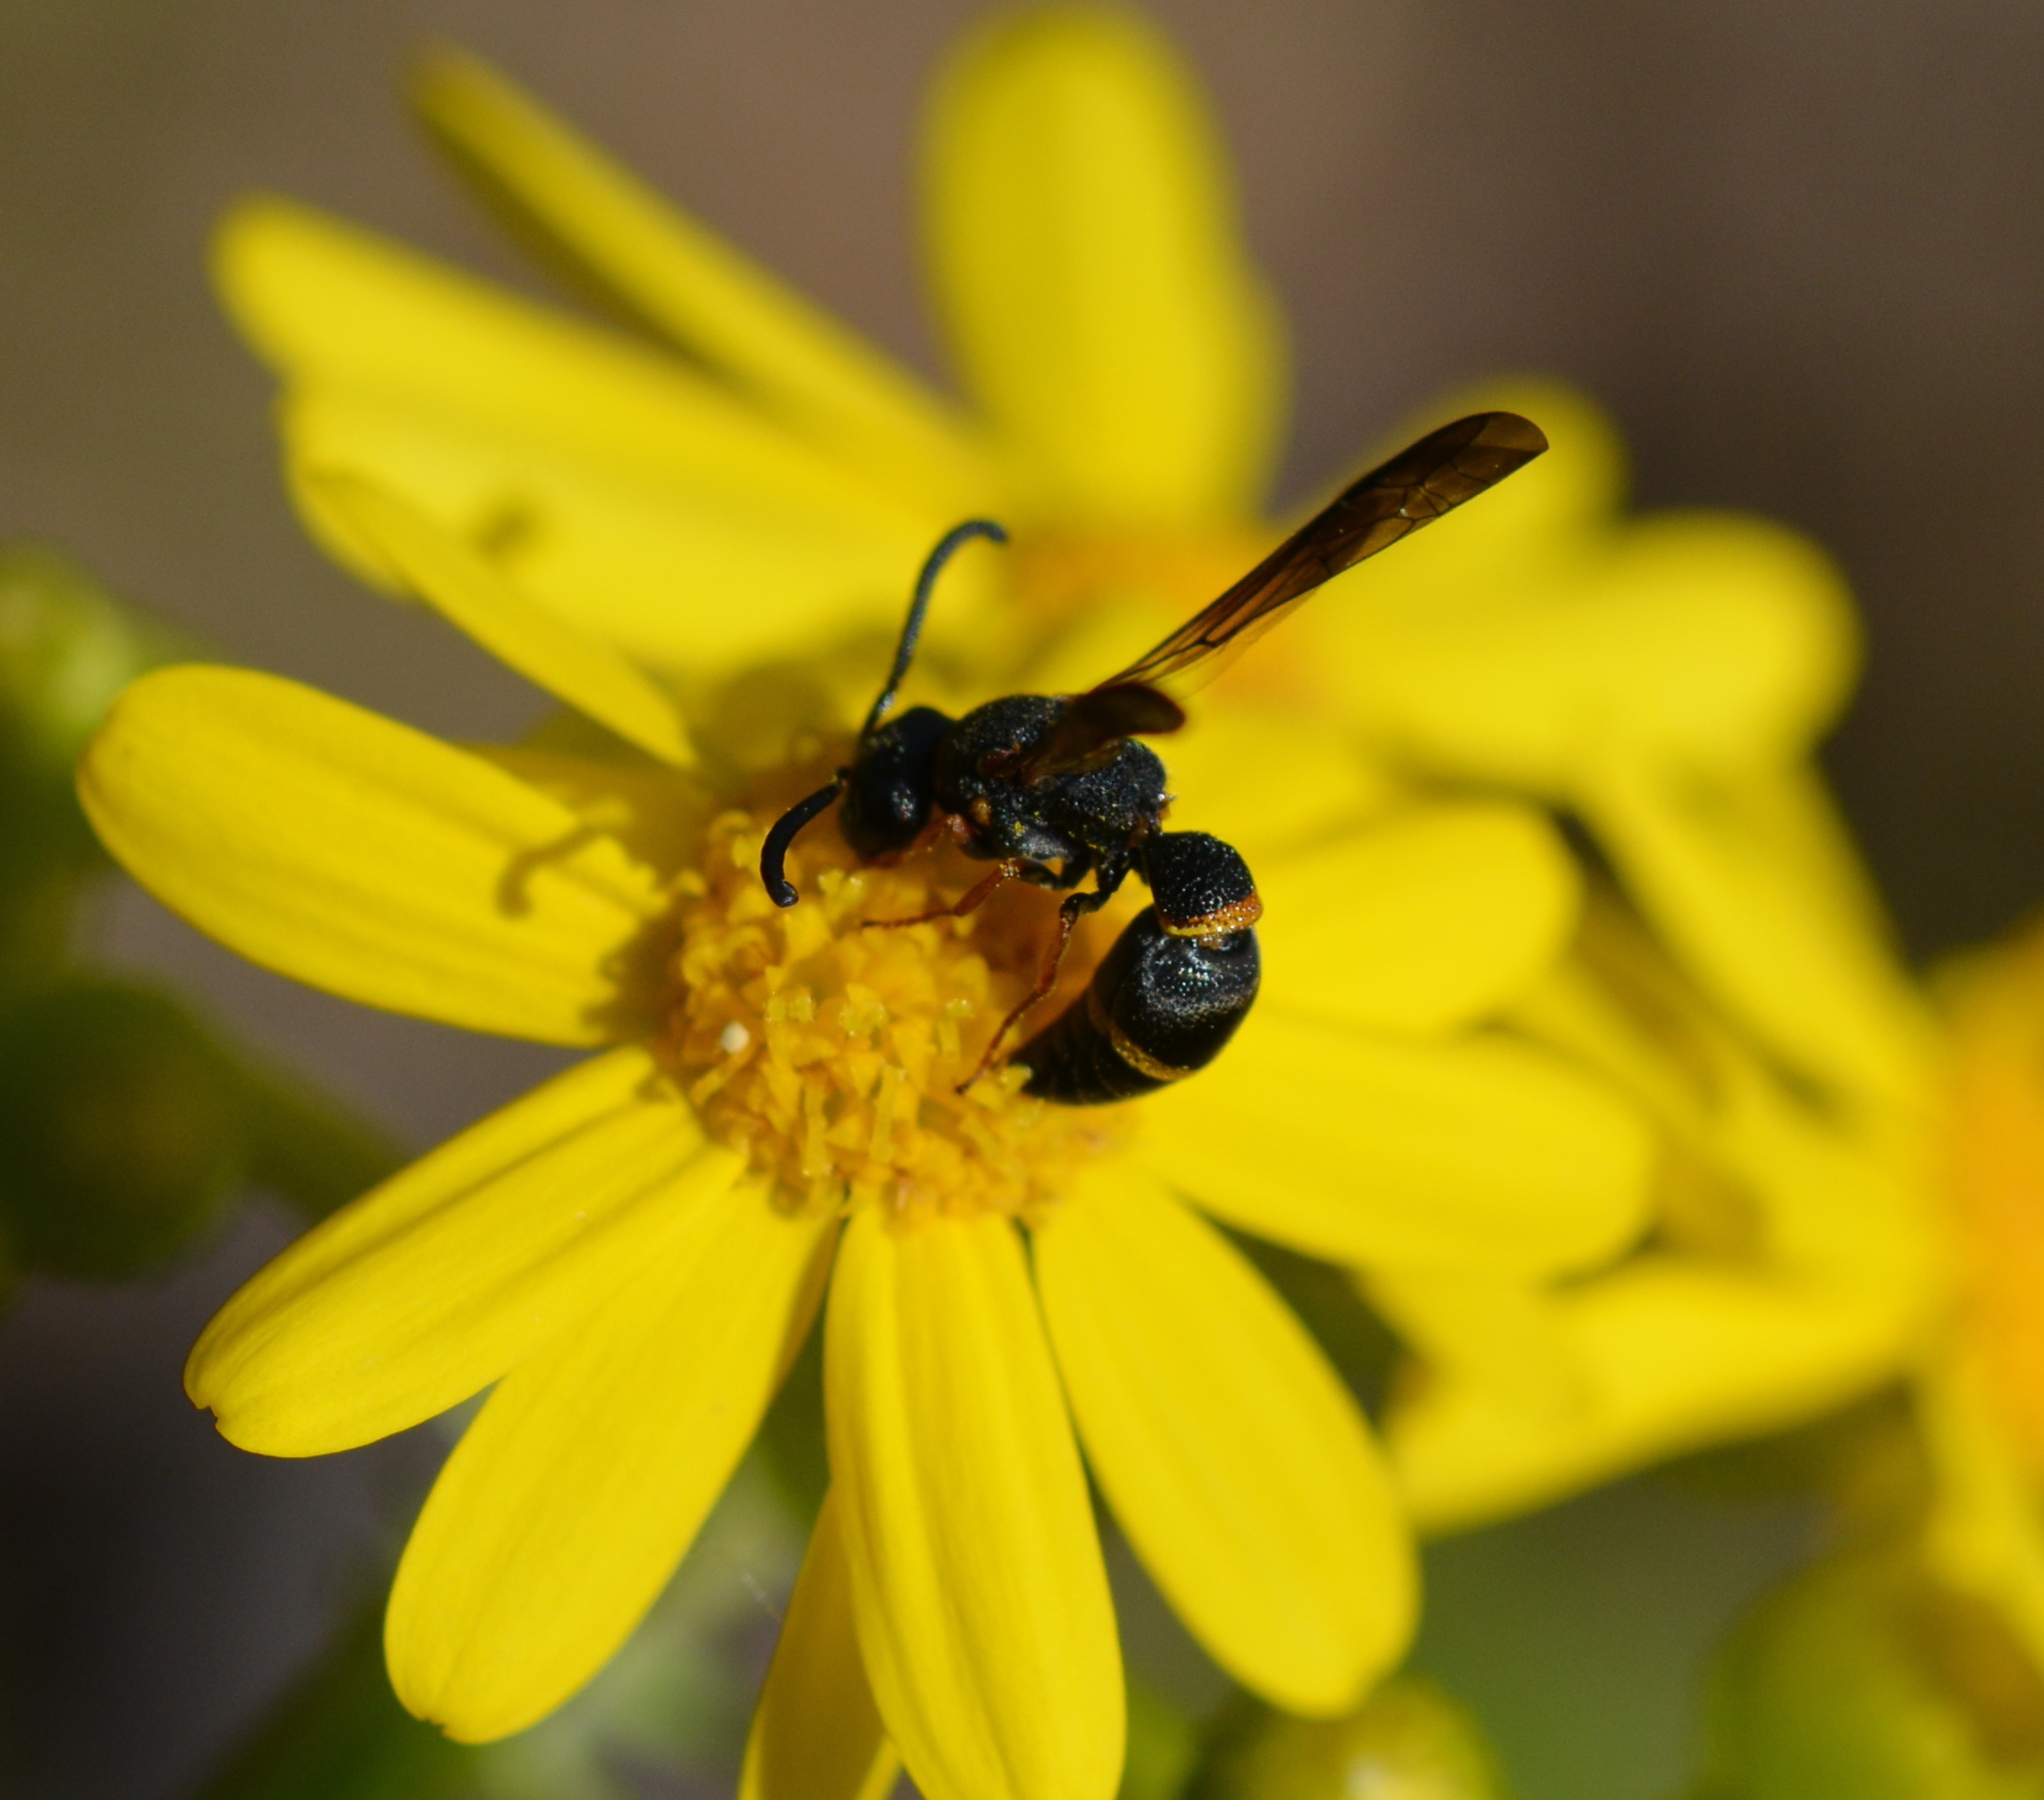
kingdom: Animalia
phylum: Arthropoda
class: Insecta
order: Hymenoptera
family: Eumenidae
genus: Parancistrocerus
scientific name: Parancistrocerus perennis
